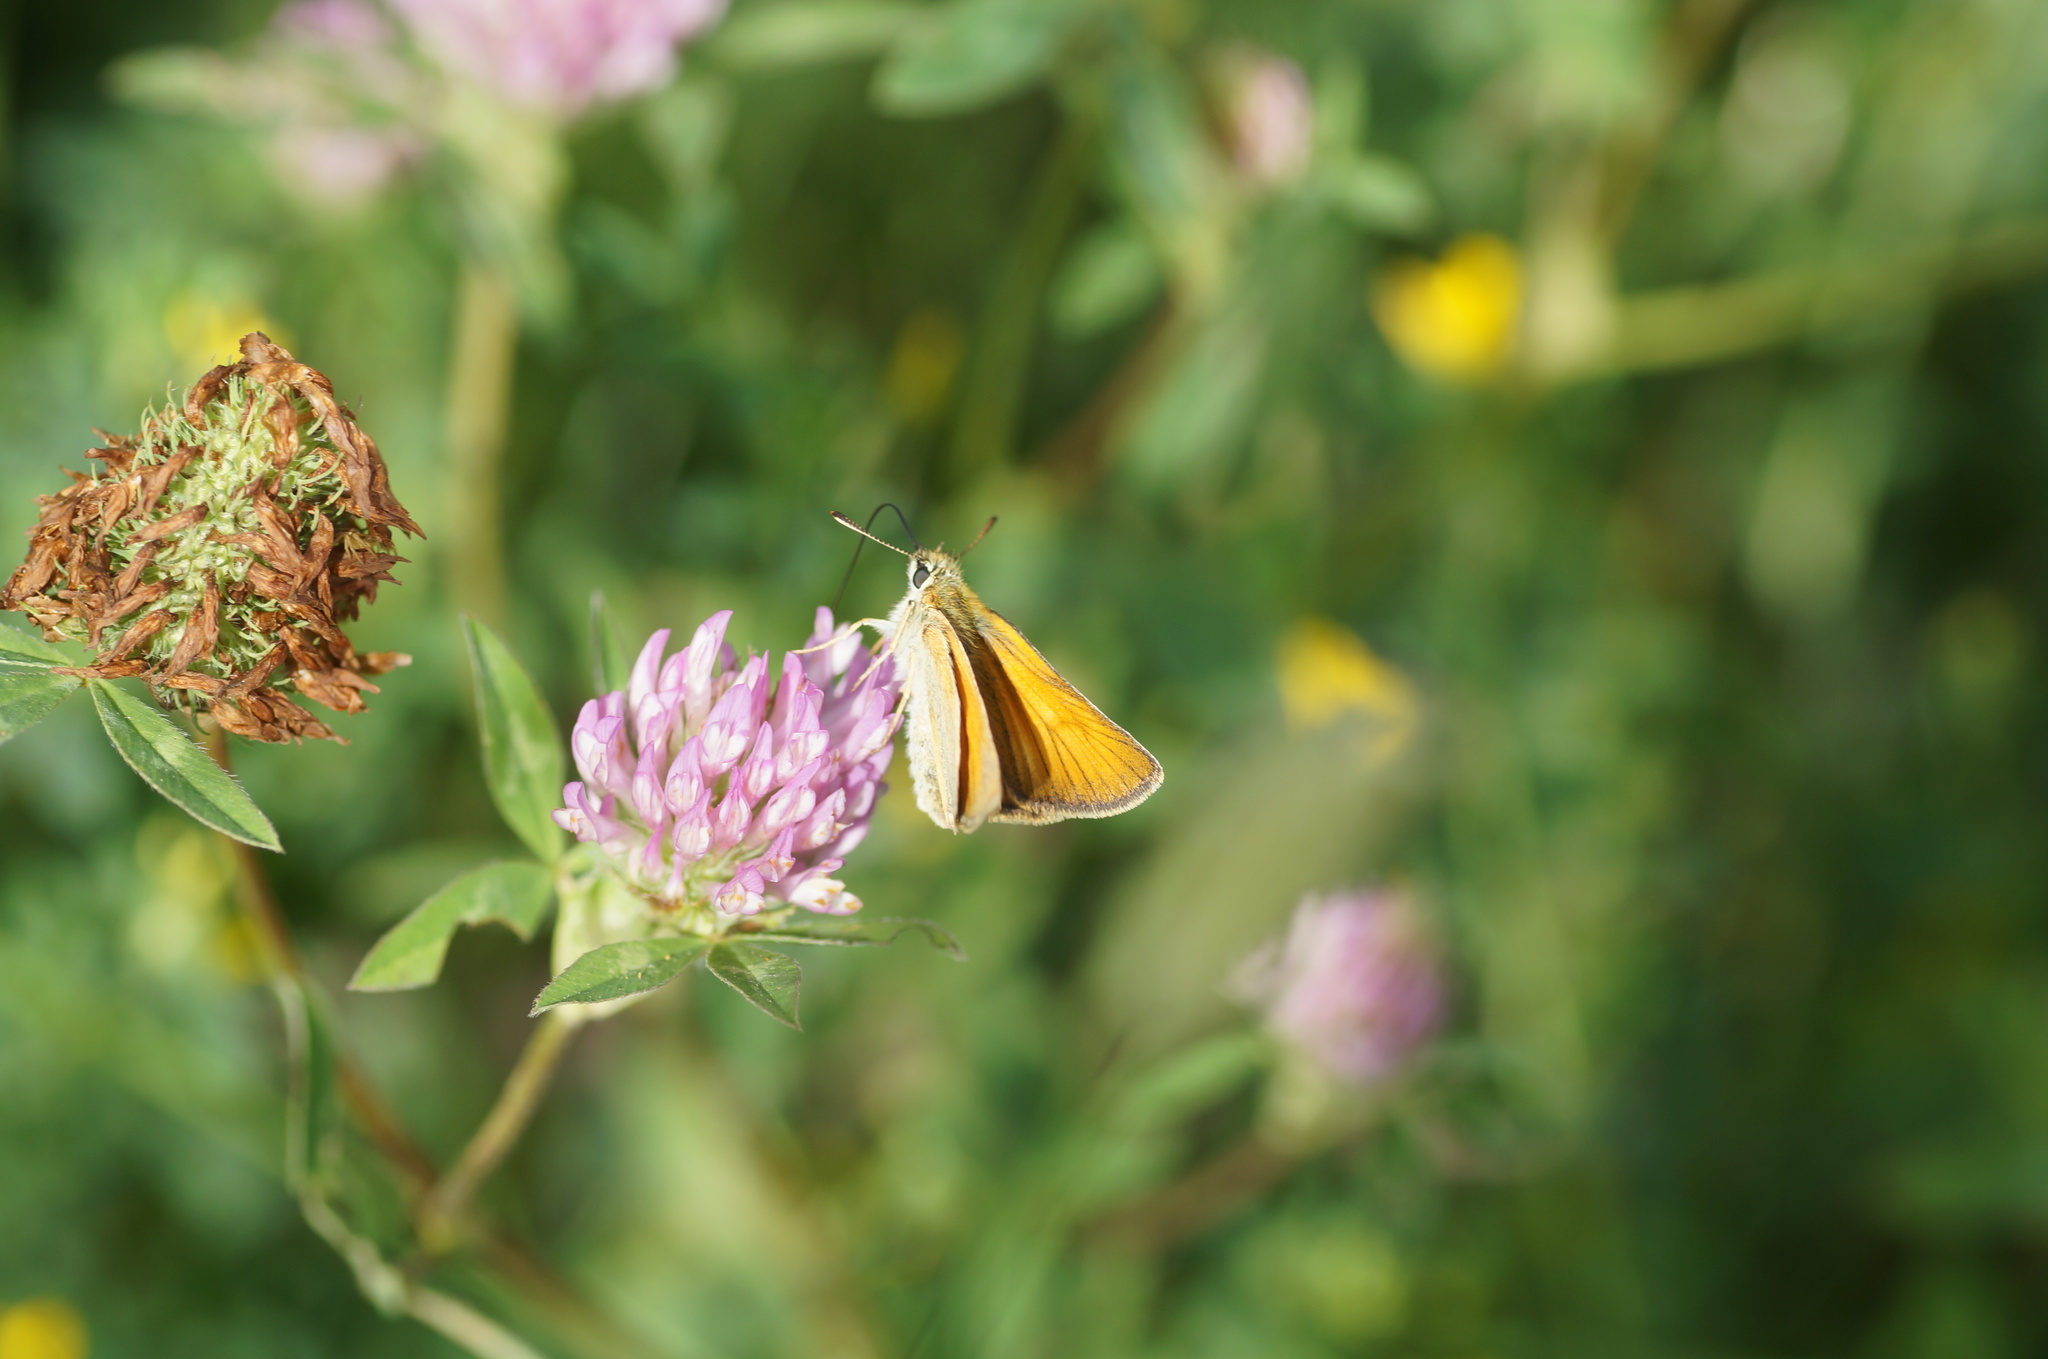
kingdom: Animalia
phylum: Arthropoda
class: Insecta
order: Lepidoptera
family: Hesperiidae
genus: Thymelicus
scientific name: Thymelicus sylvestris
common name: Small skipper
